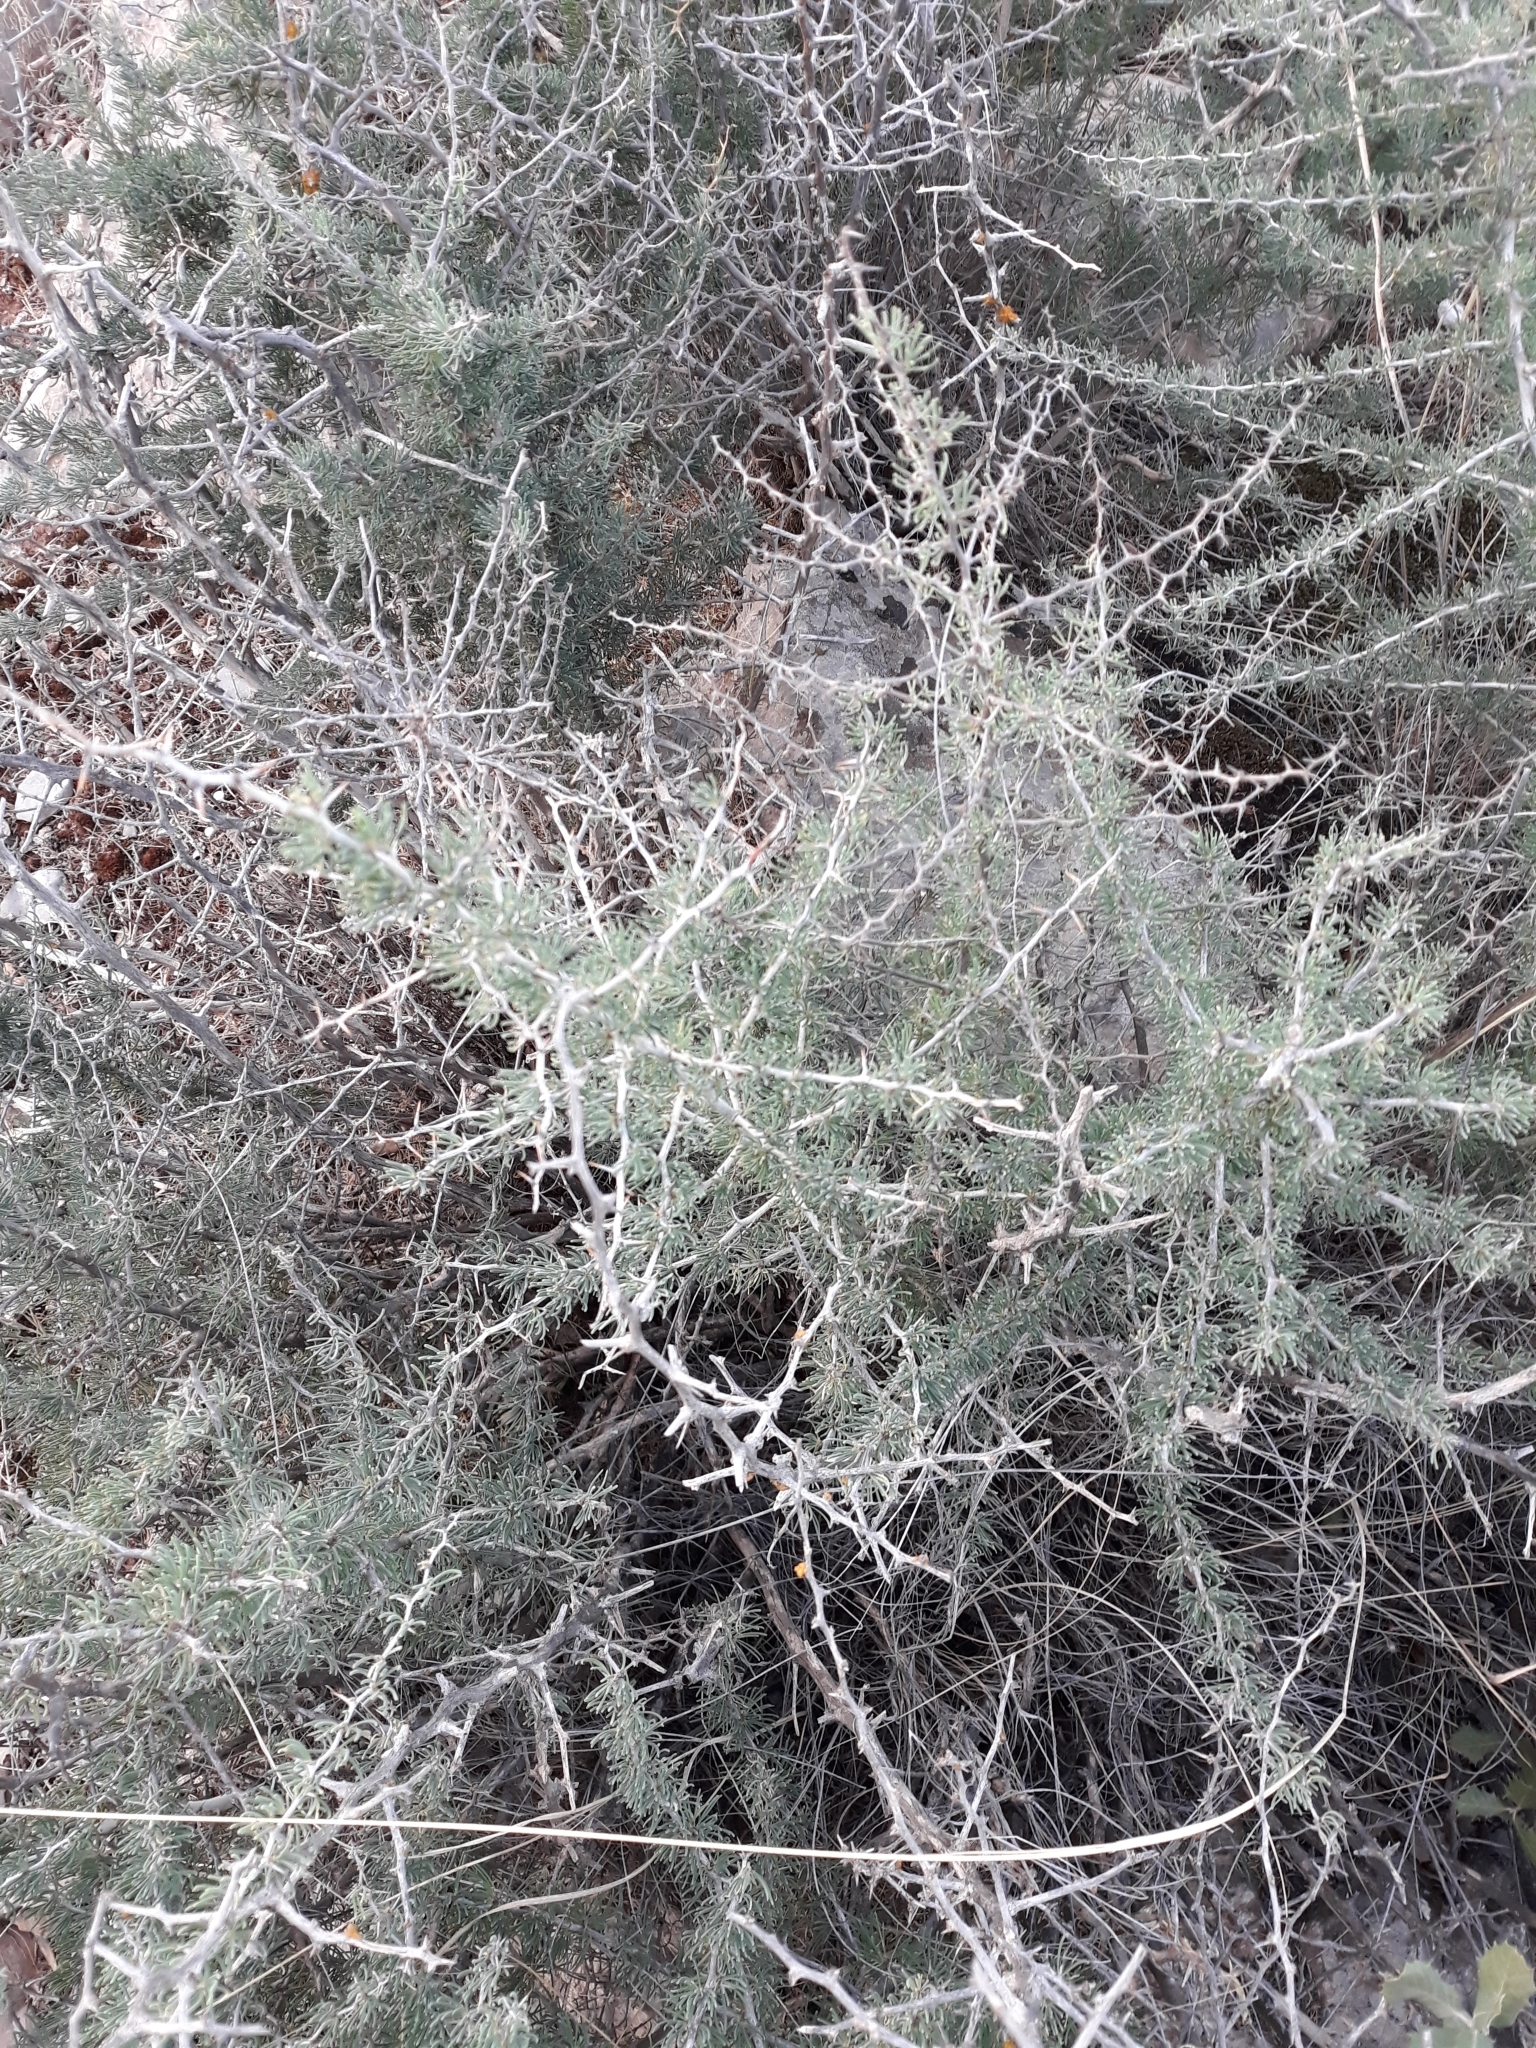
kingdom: Plantae
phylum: Tracheophyta
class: Liliopsida
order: Asparagales
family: Asparagaceae
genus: Asparagus
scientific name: Asparagus albus
